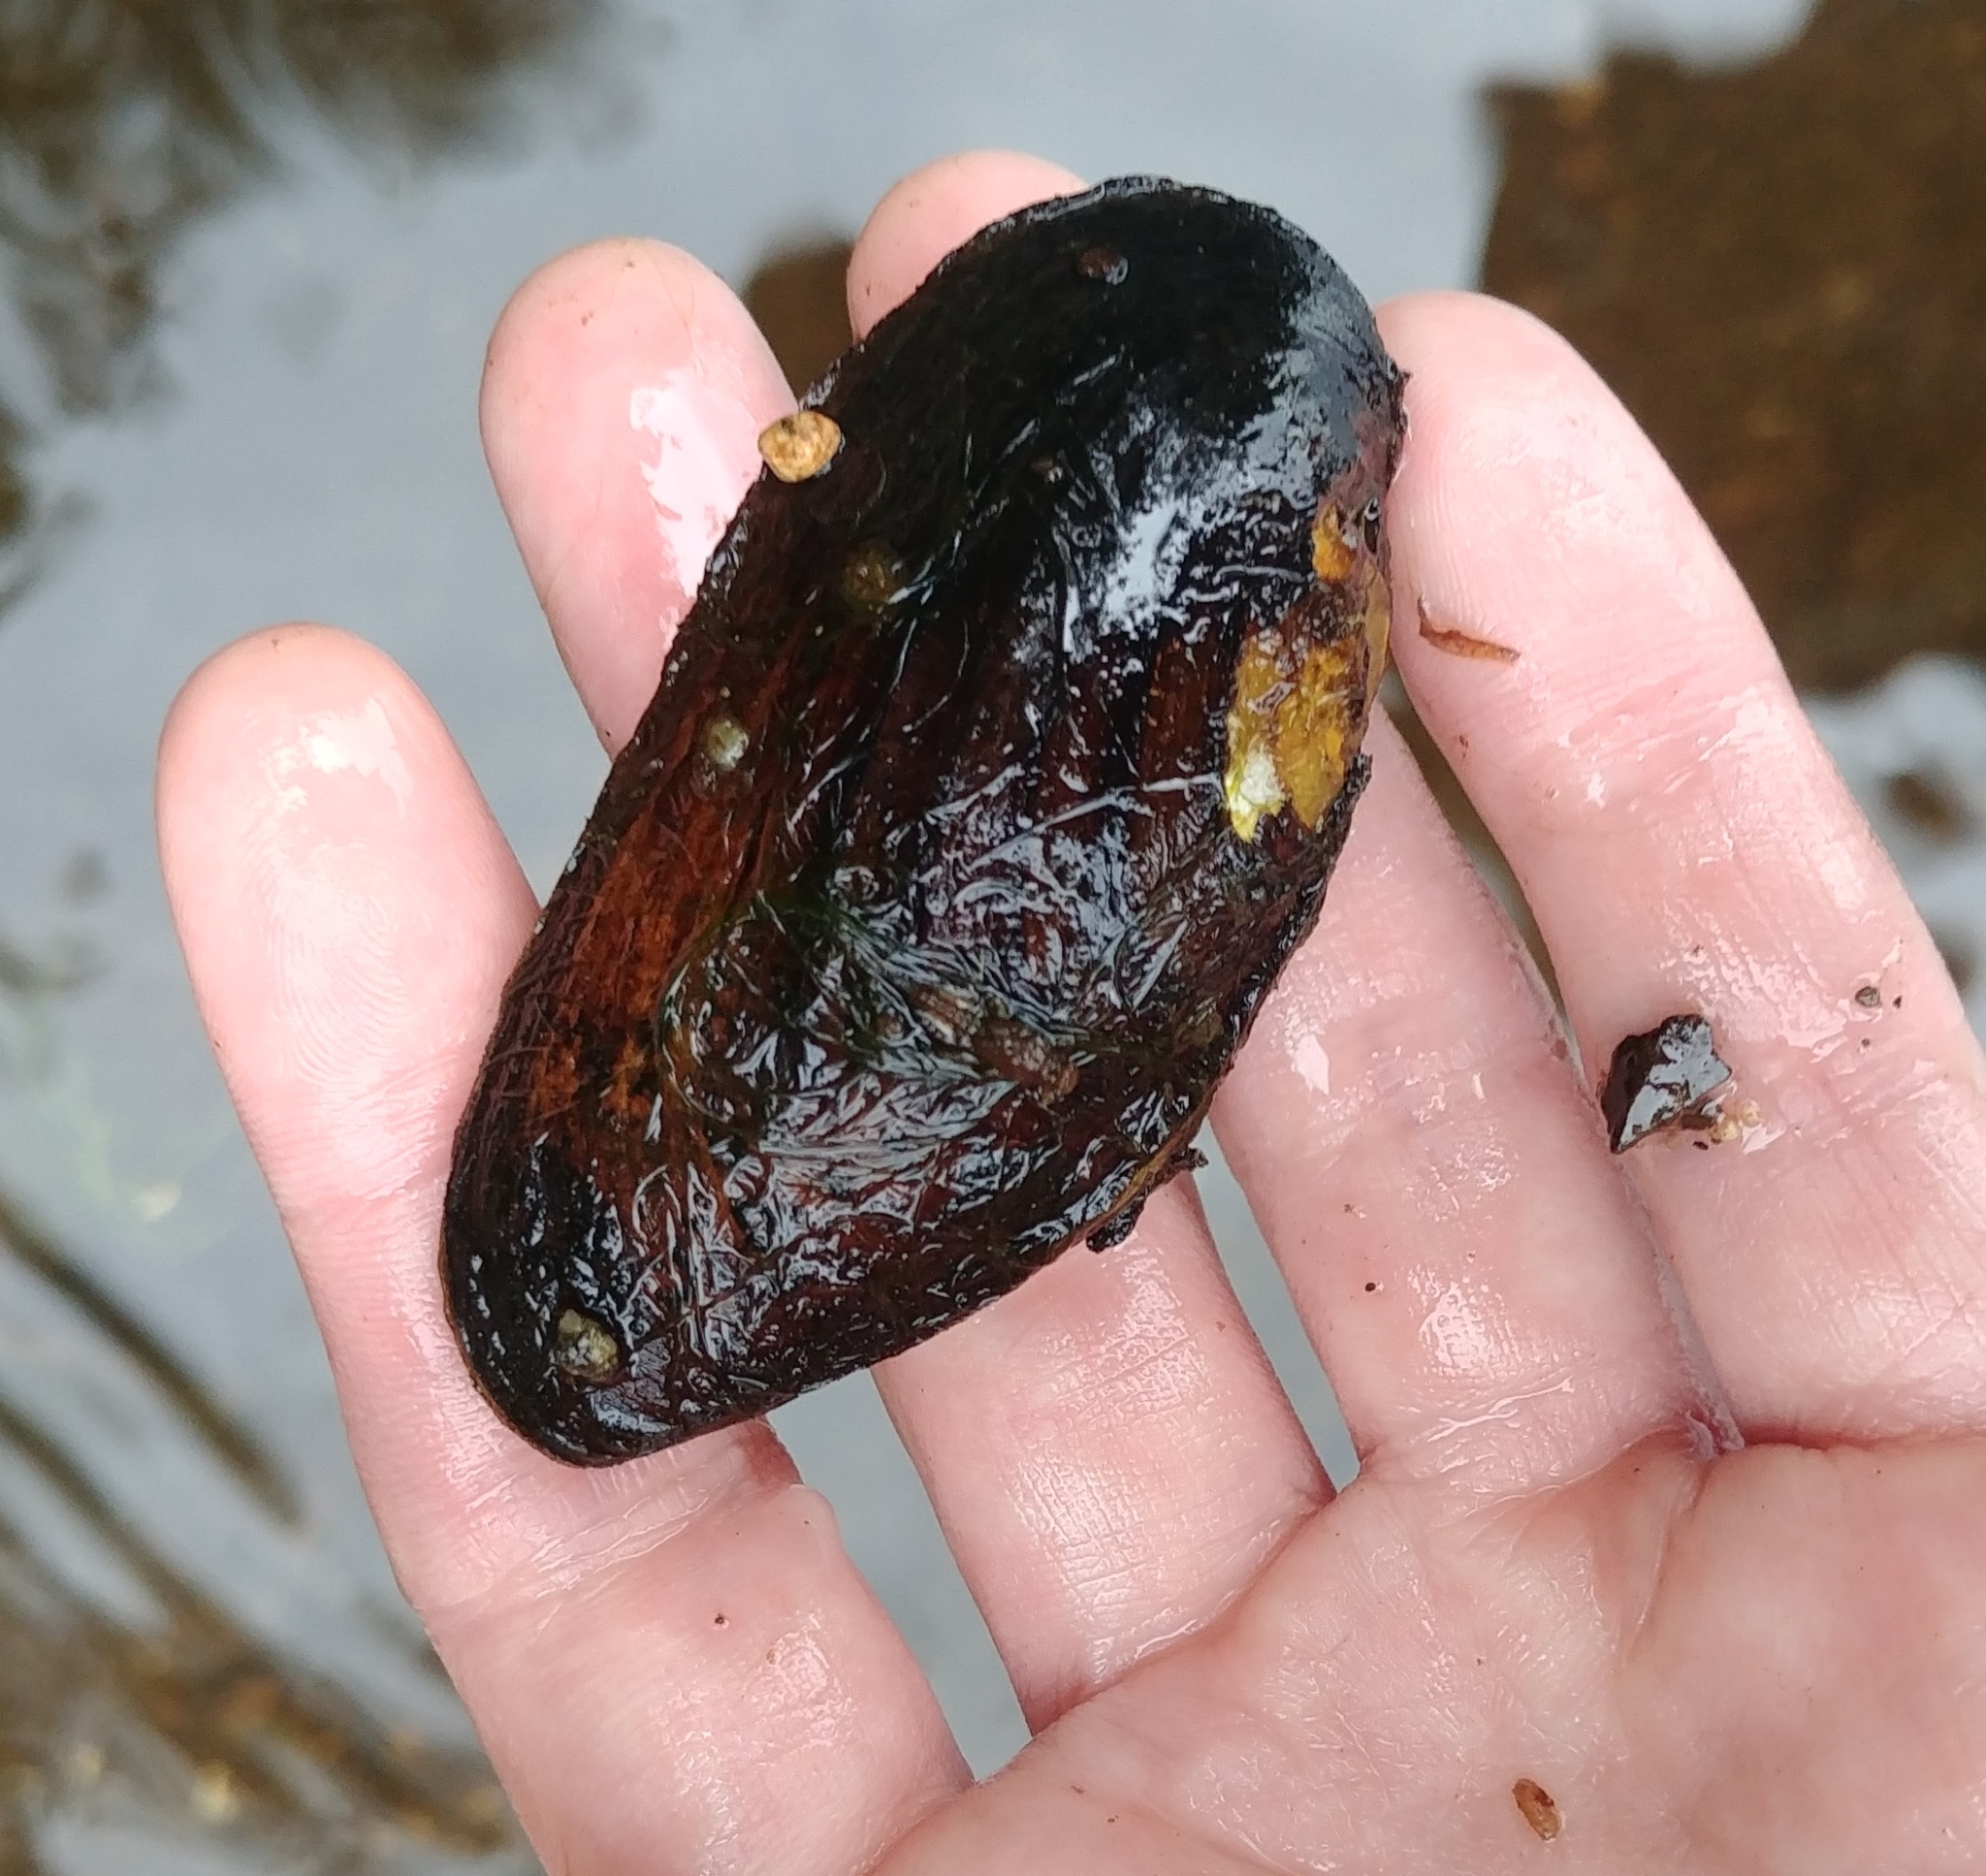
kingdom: Animalia
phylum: Mollusca
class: Bivalvia
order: Unionida
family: Margaritiferidae
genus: Margaritifera
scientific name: Margaritifera margaritifera
